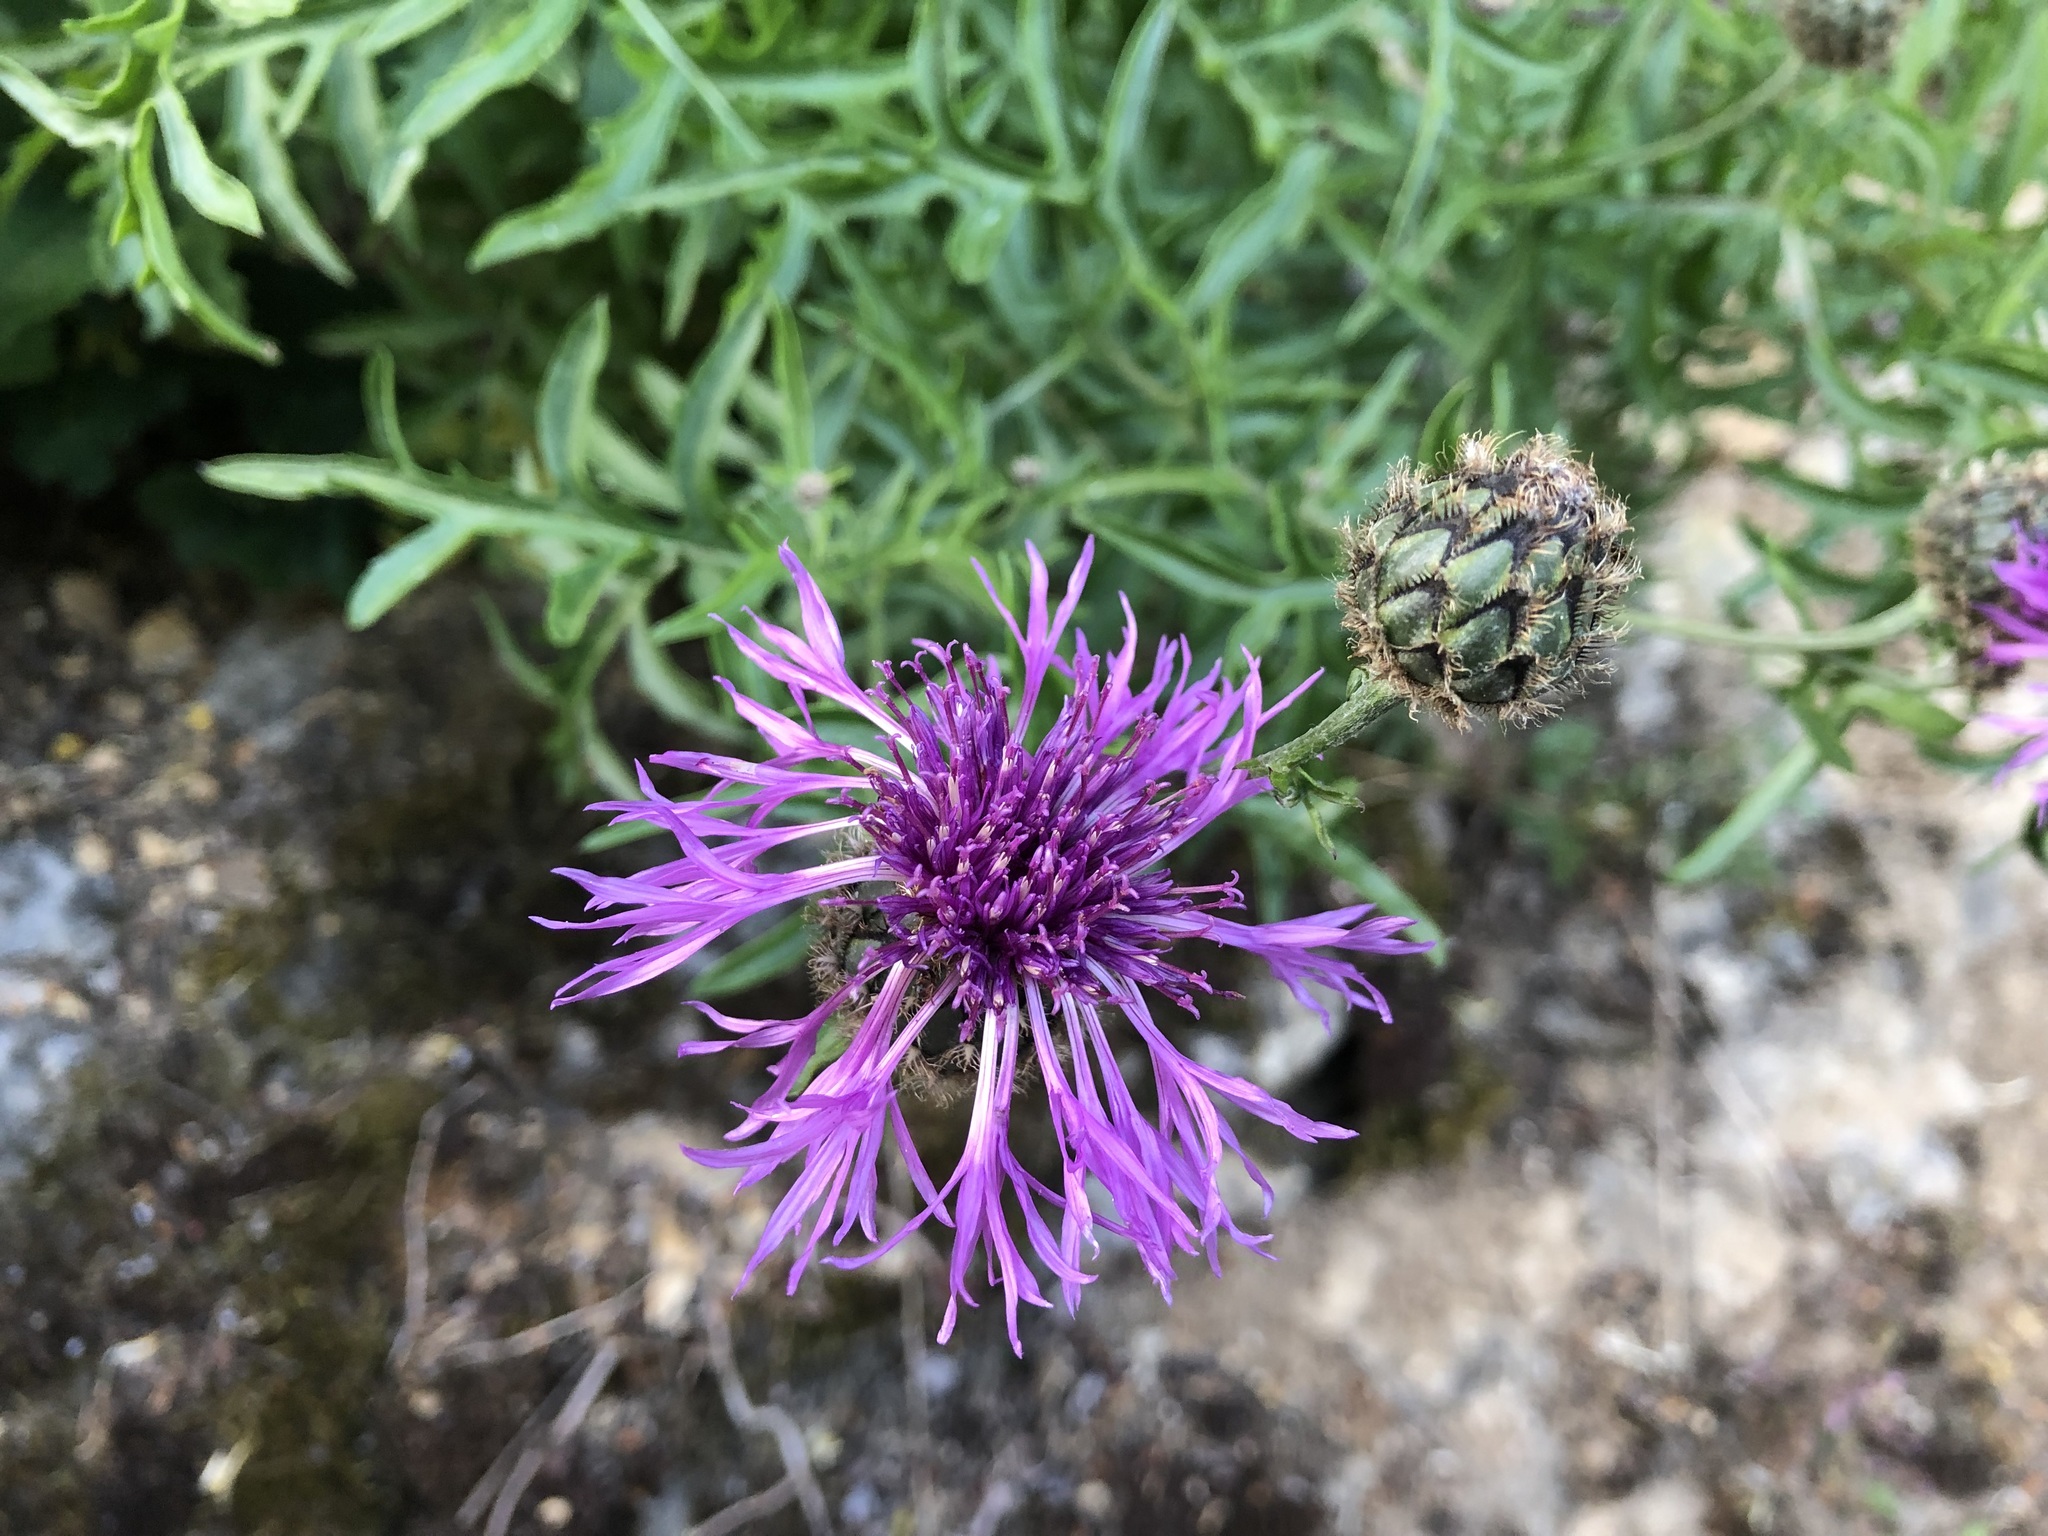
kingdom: Plantae
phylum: Tracheophyta
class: Magnoliopsida
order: Asterales
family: Asteraceae
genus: Centaurea
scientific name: Centaurea scabiosa
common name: Greater knapweed
